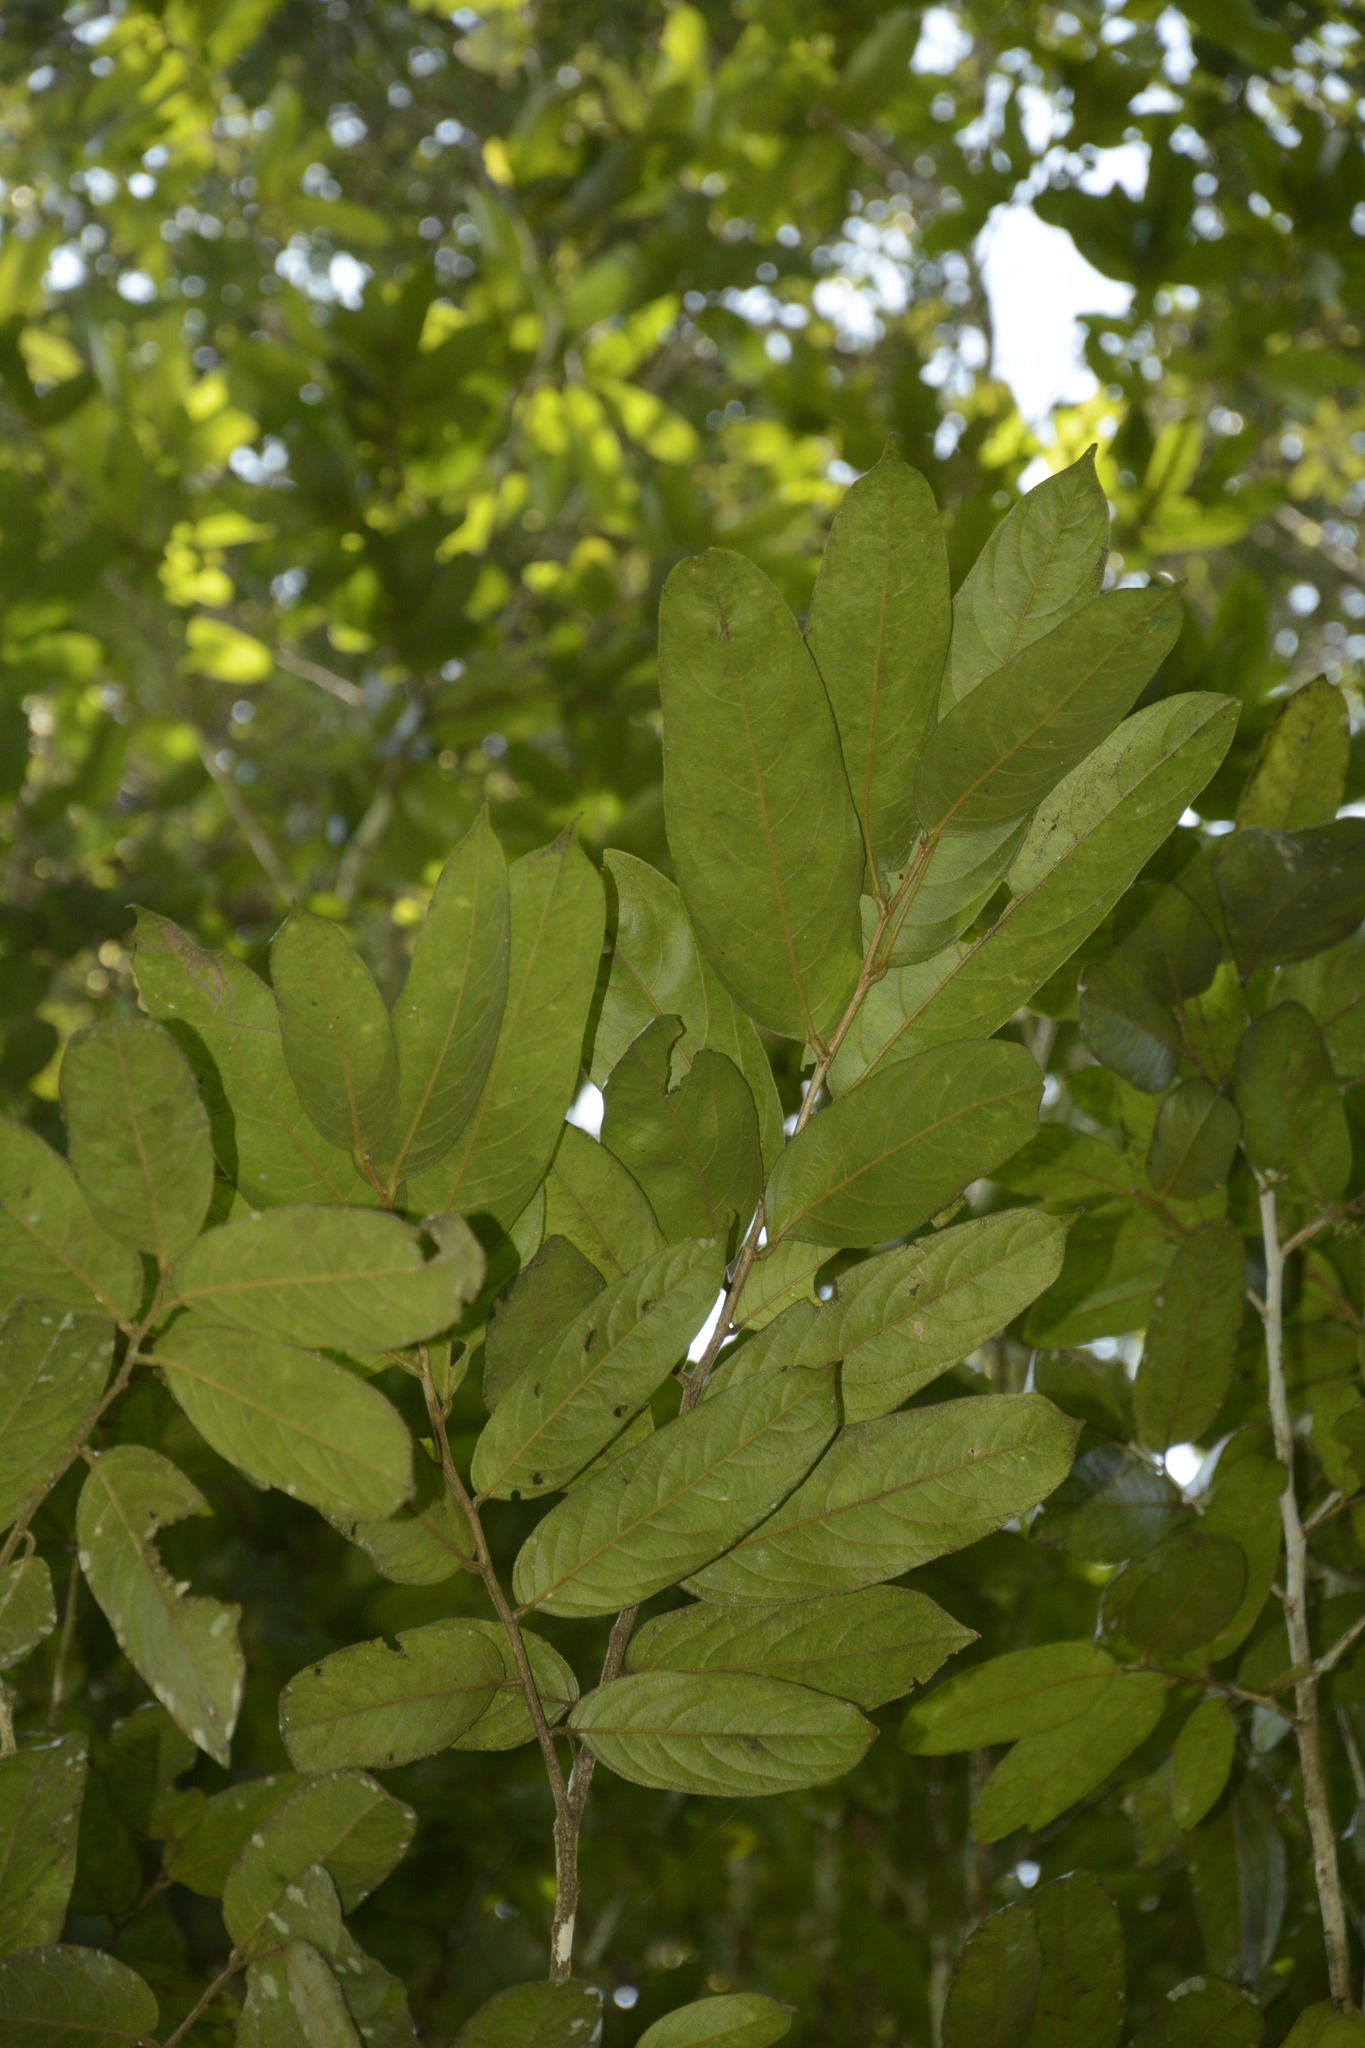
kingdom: Plantae
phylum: Tracheophyta
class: Magnoliopsida
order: Malpighiales
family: Putranjivaceae
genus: Drypetes
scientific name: Drypetes malabarica
